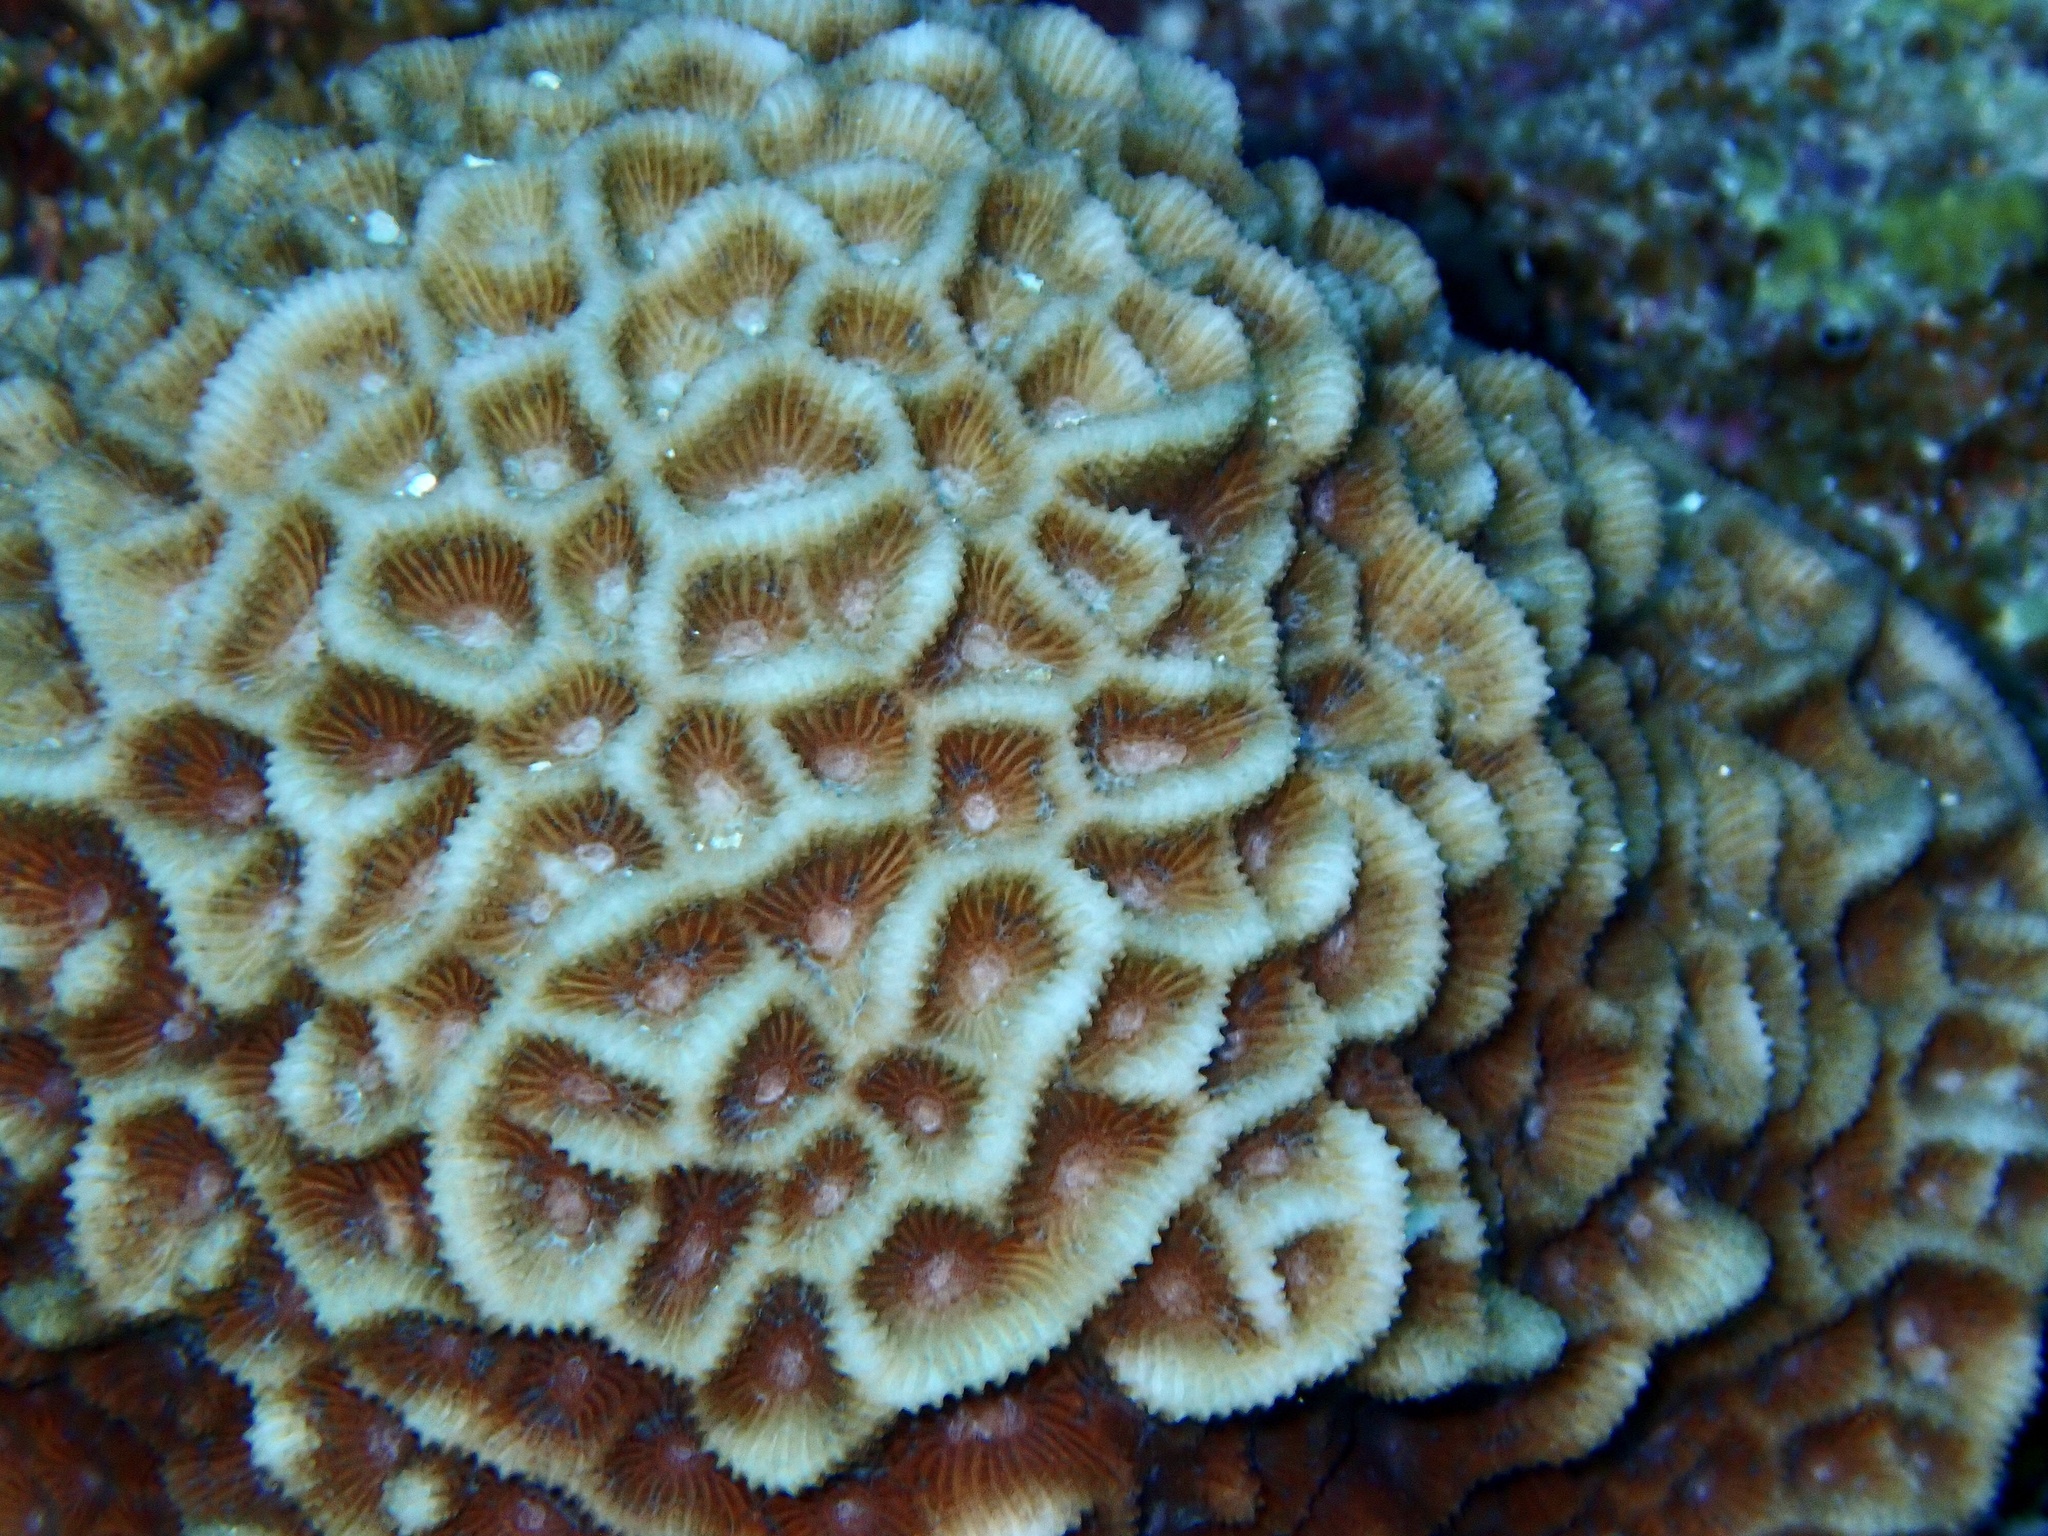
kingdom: Animalia
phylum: Cnidaria
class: Anthozoa
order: Scleractinia
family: Merulinidae
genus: Paramontastraea
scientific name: Paramontastraea peresi
